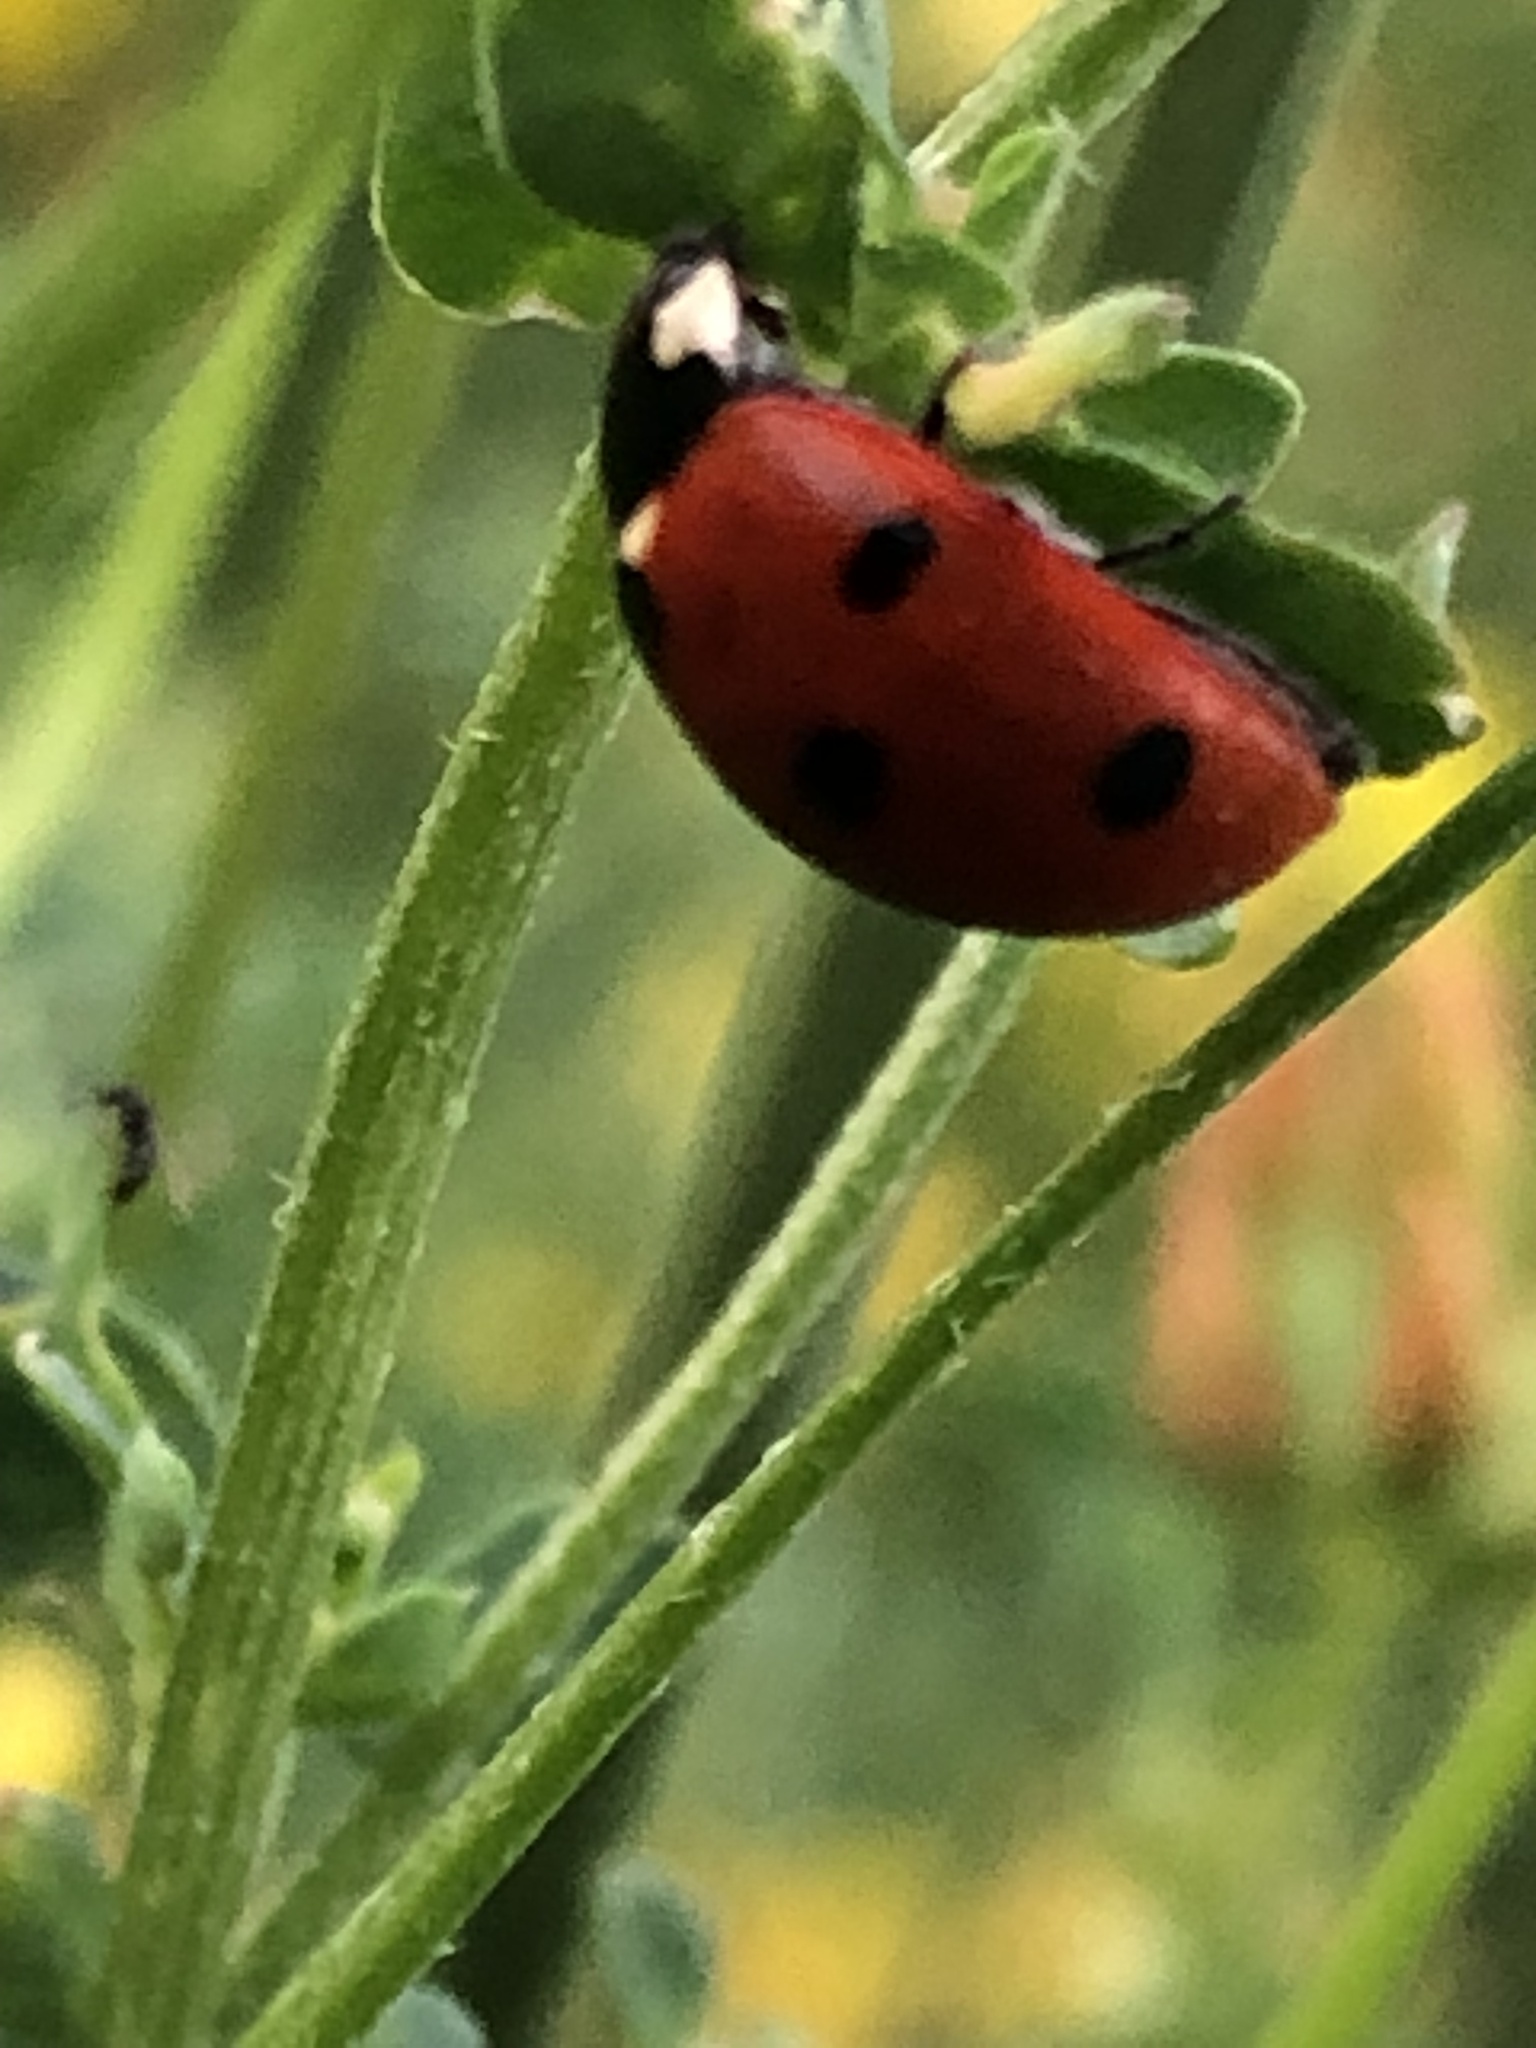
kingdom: Animalia
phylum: Arthropoda
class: Insecta
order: Coleoptera
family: Coccinellidae
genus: Coccinella
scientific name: Coccinella septempunctata
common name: Sevenspotted lady beetle
